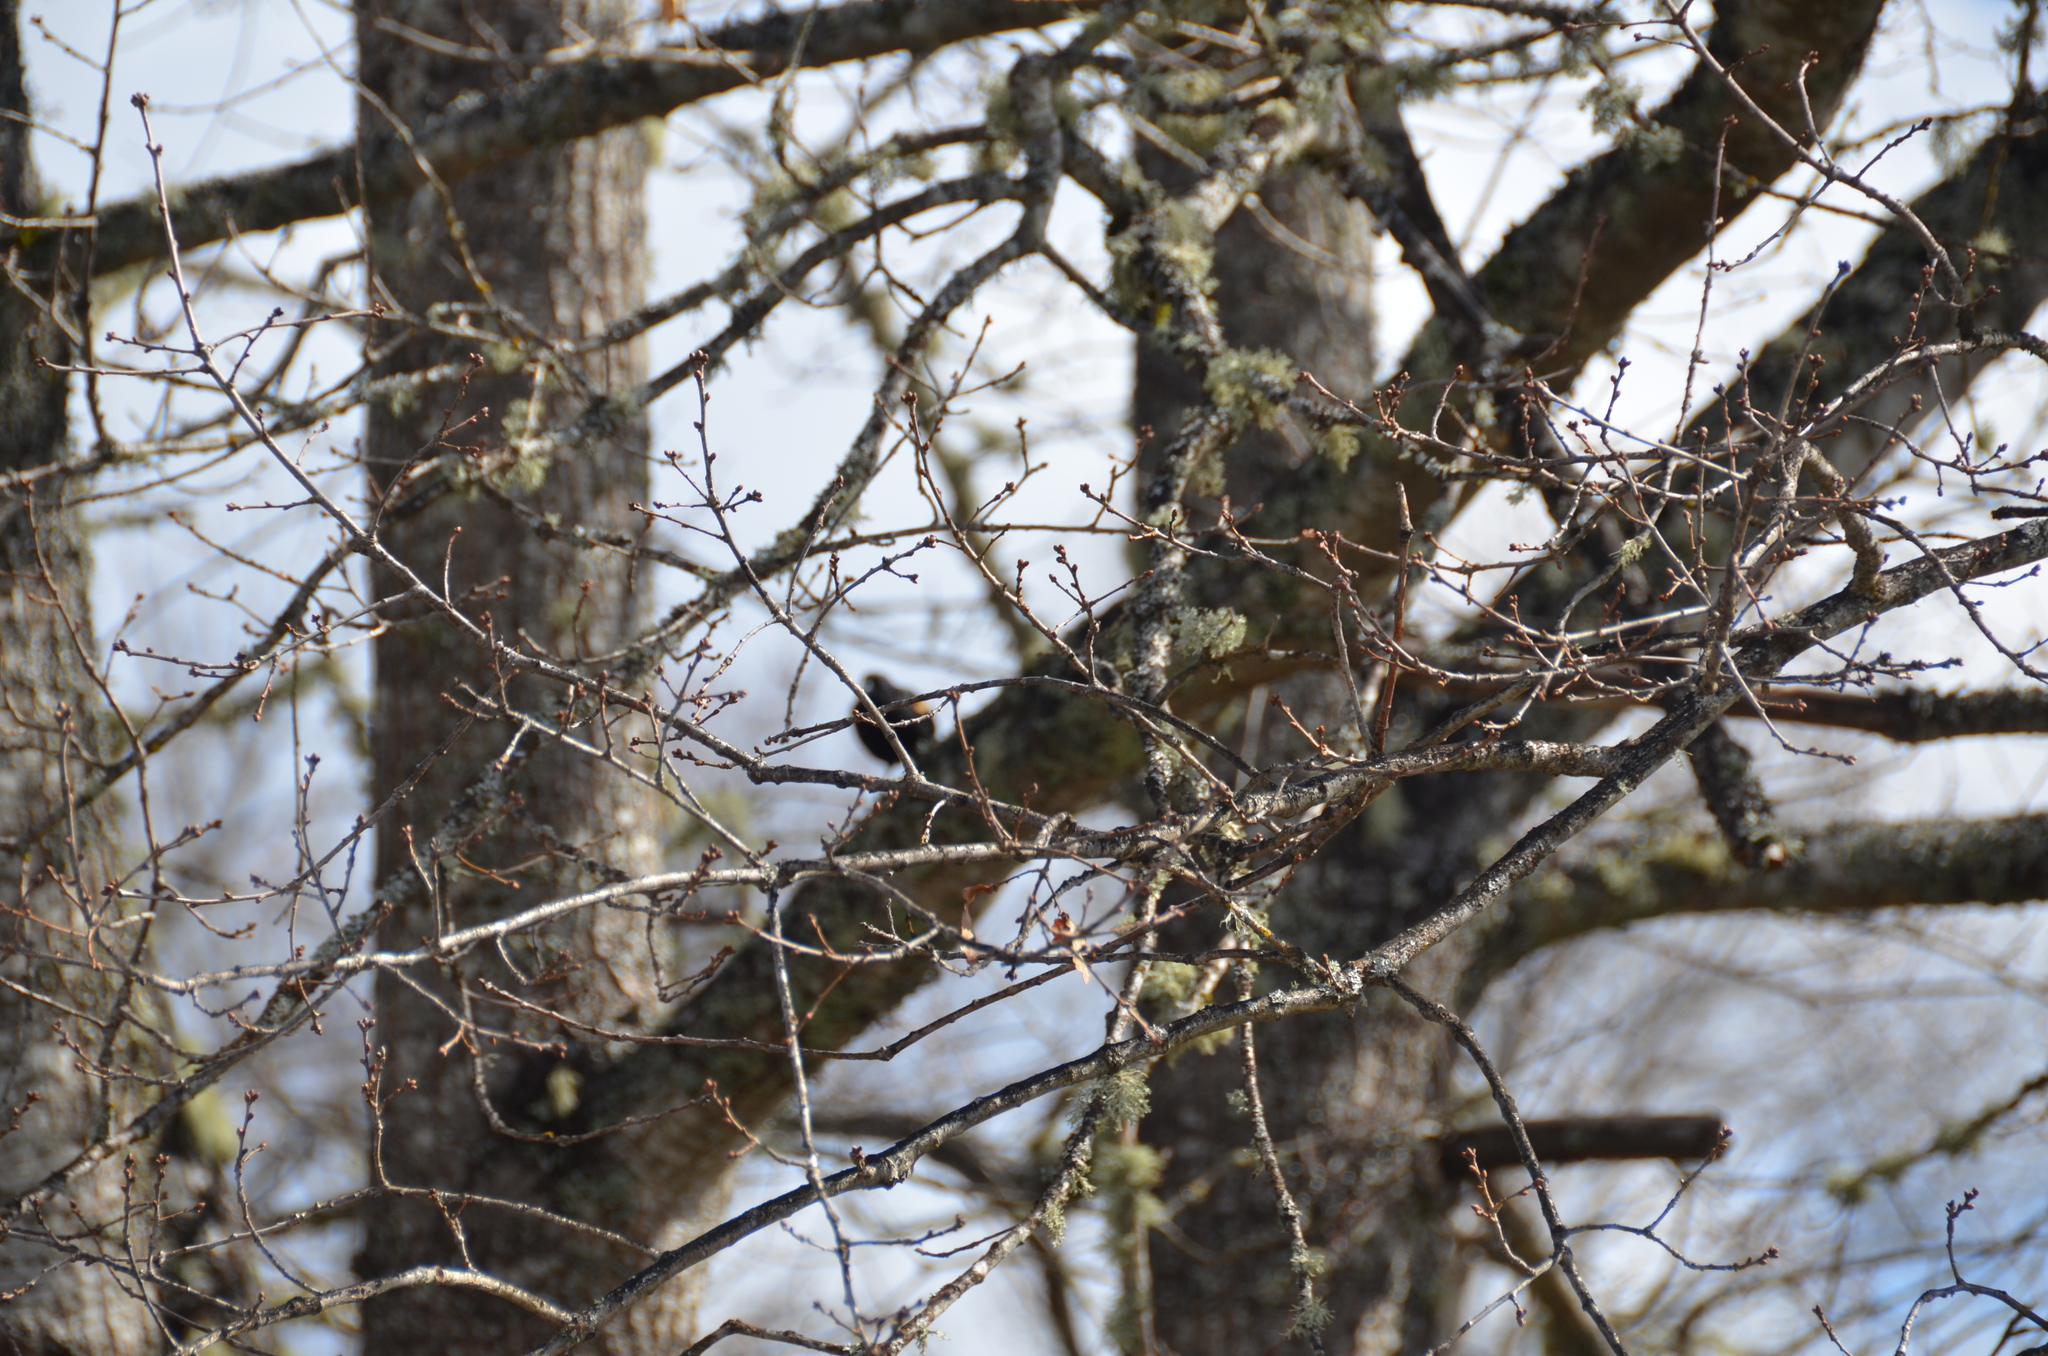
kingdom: Animalia
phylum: Chordata
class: Aves
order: Passeriformes
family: Icteridae
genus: Agelaius
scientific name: Agelaius phoeniceus
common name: Red-winged blackbird
